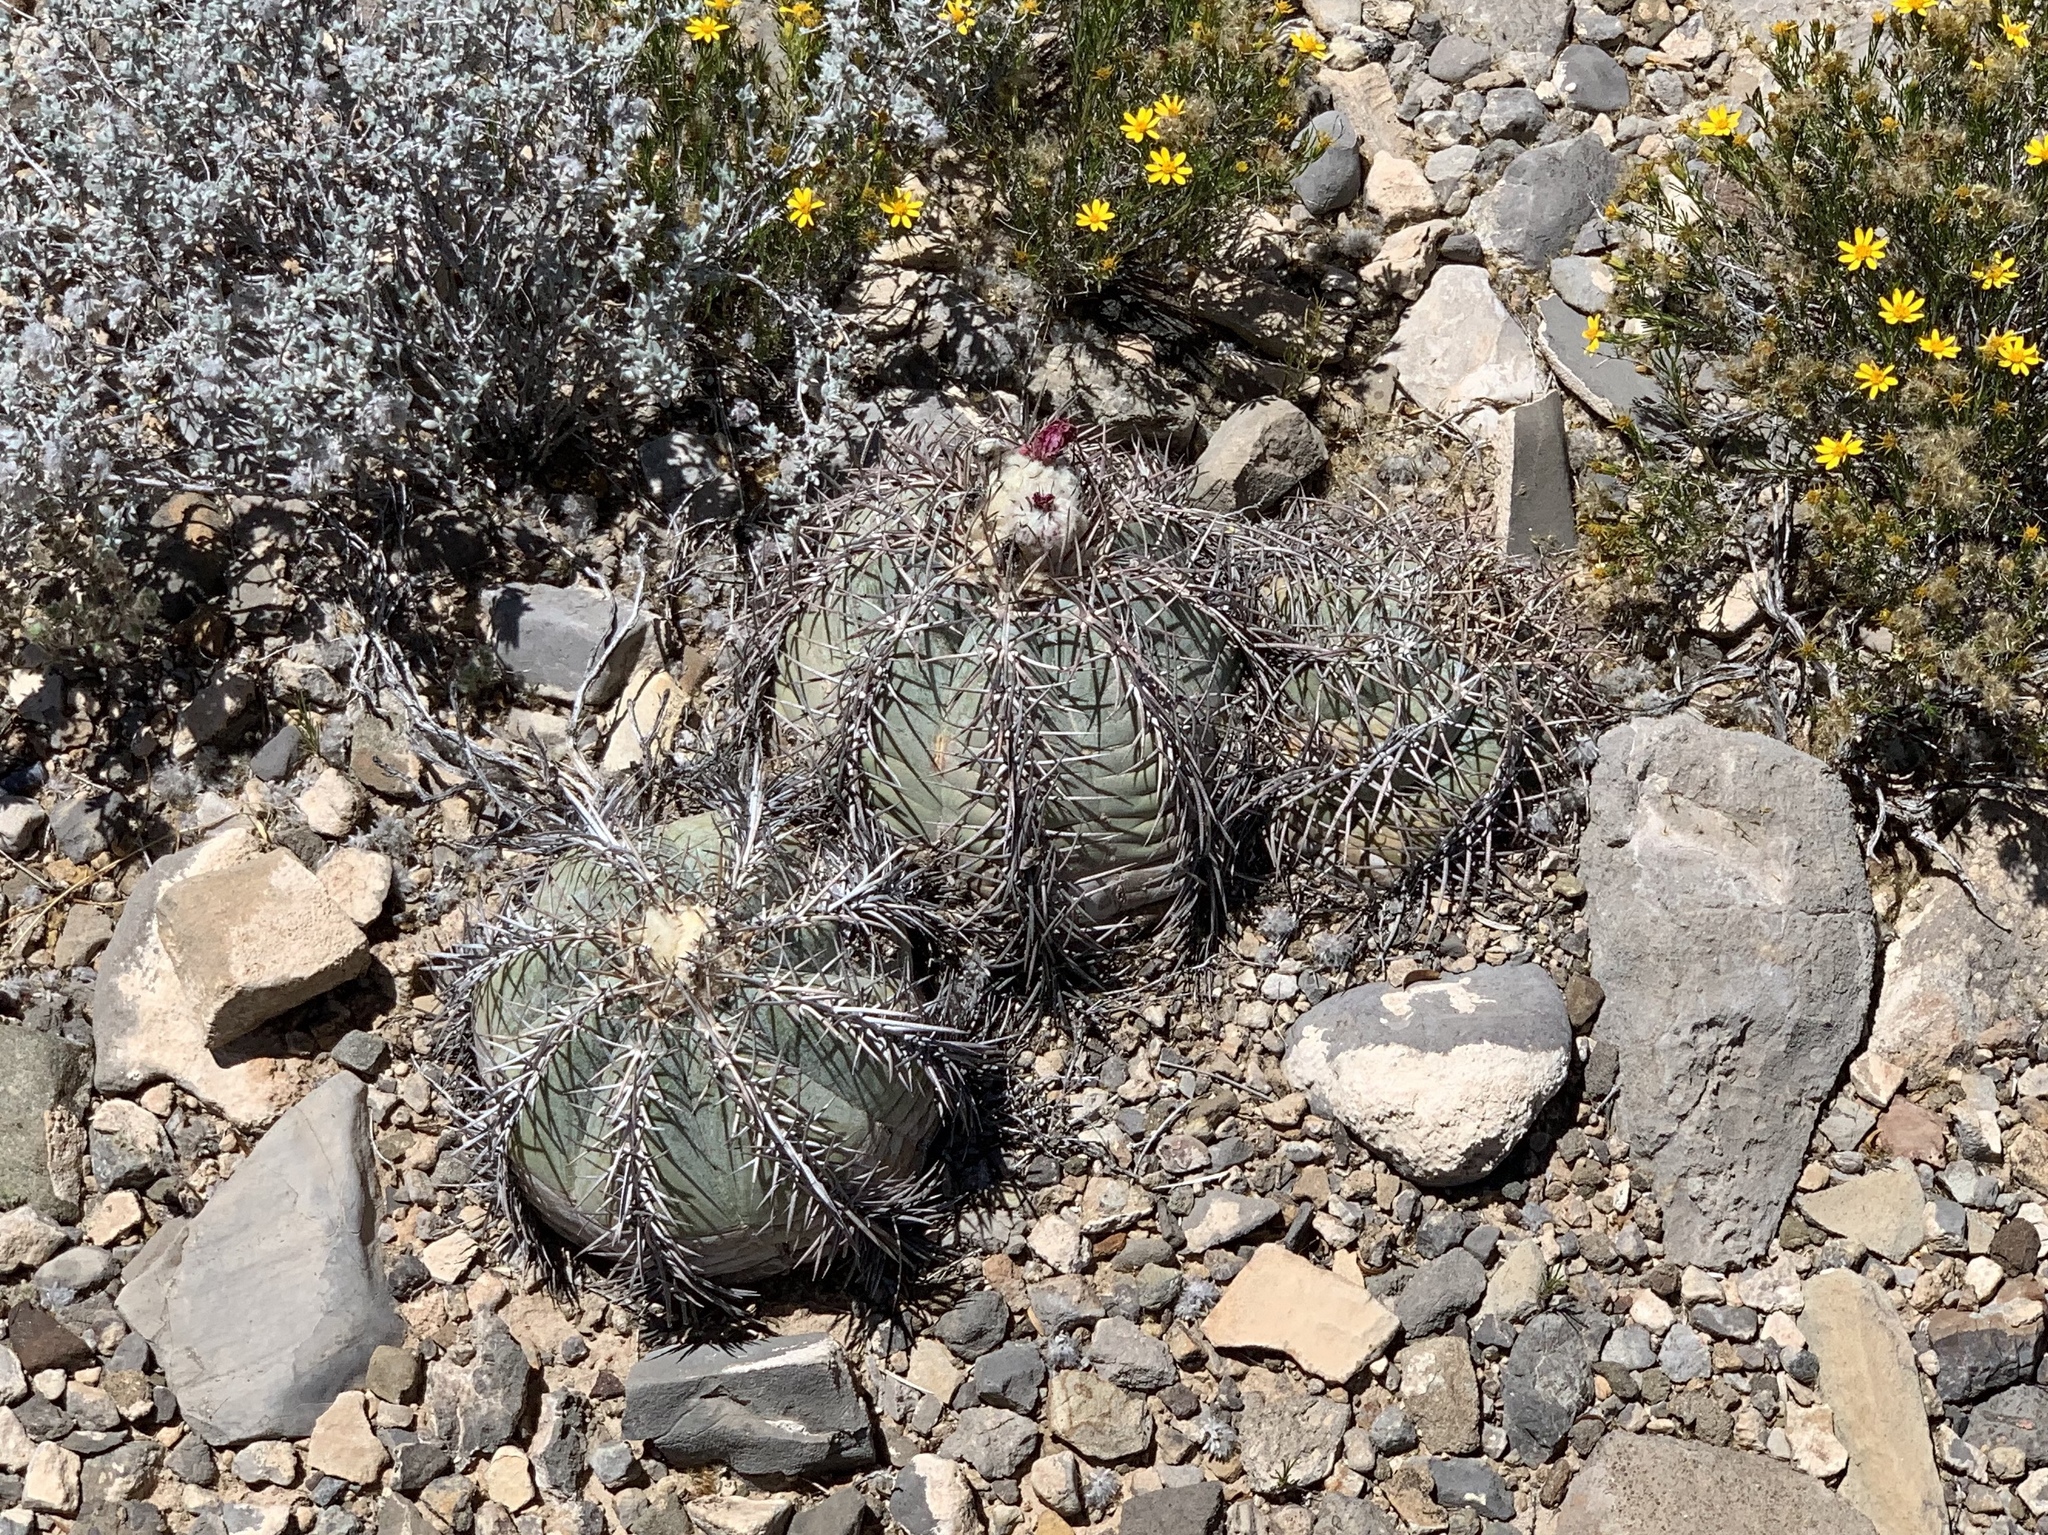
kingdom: Plantae
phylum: Tracheophyta
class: Magnoliopsida
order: Caryophyllales
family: Cactaceae
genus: Echinocactus
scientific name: Echinocactus horizonthalonius
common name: Devilshead
